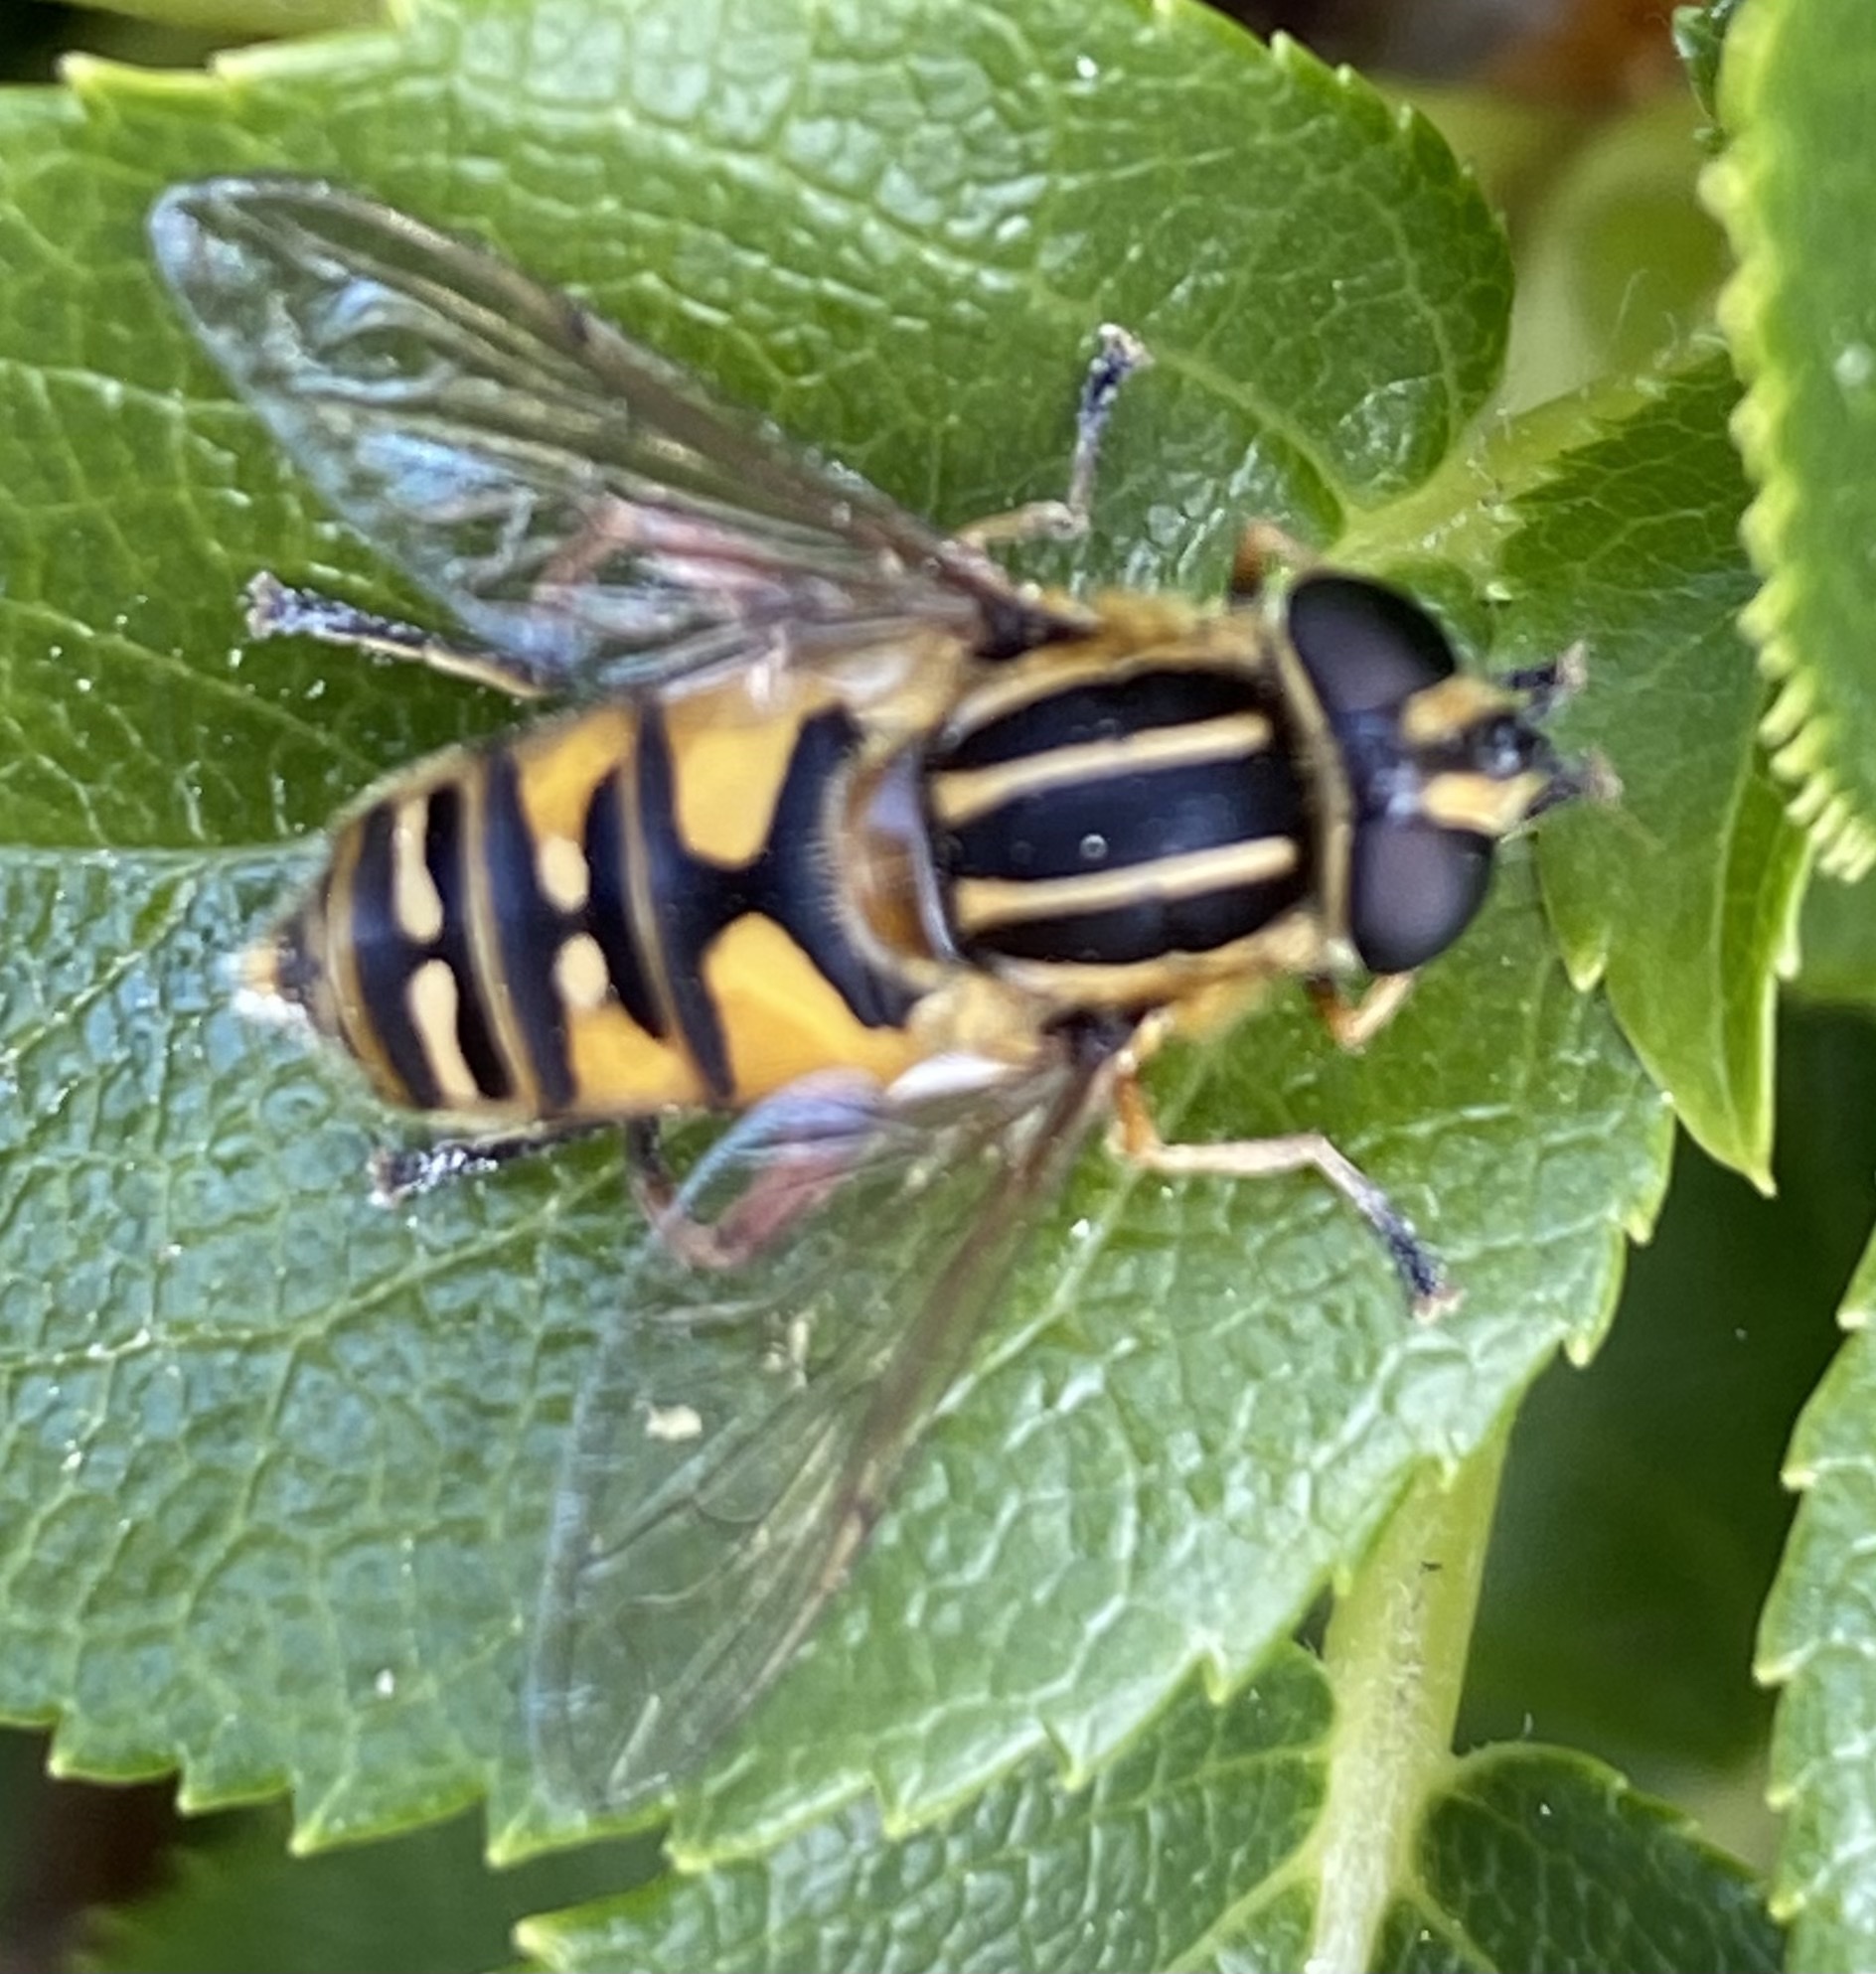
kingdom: Animalia
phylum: Arthropoda
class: Insecta
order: Diptera
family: Syrphidae
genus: Helophilus
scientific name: Helophilus pendulus
